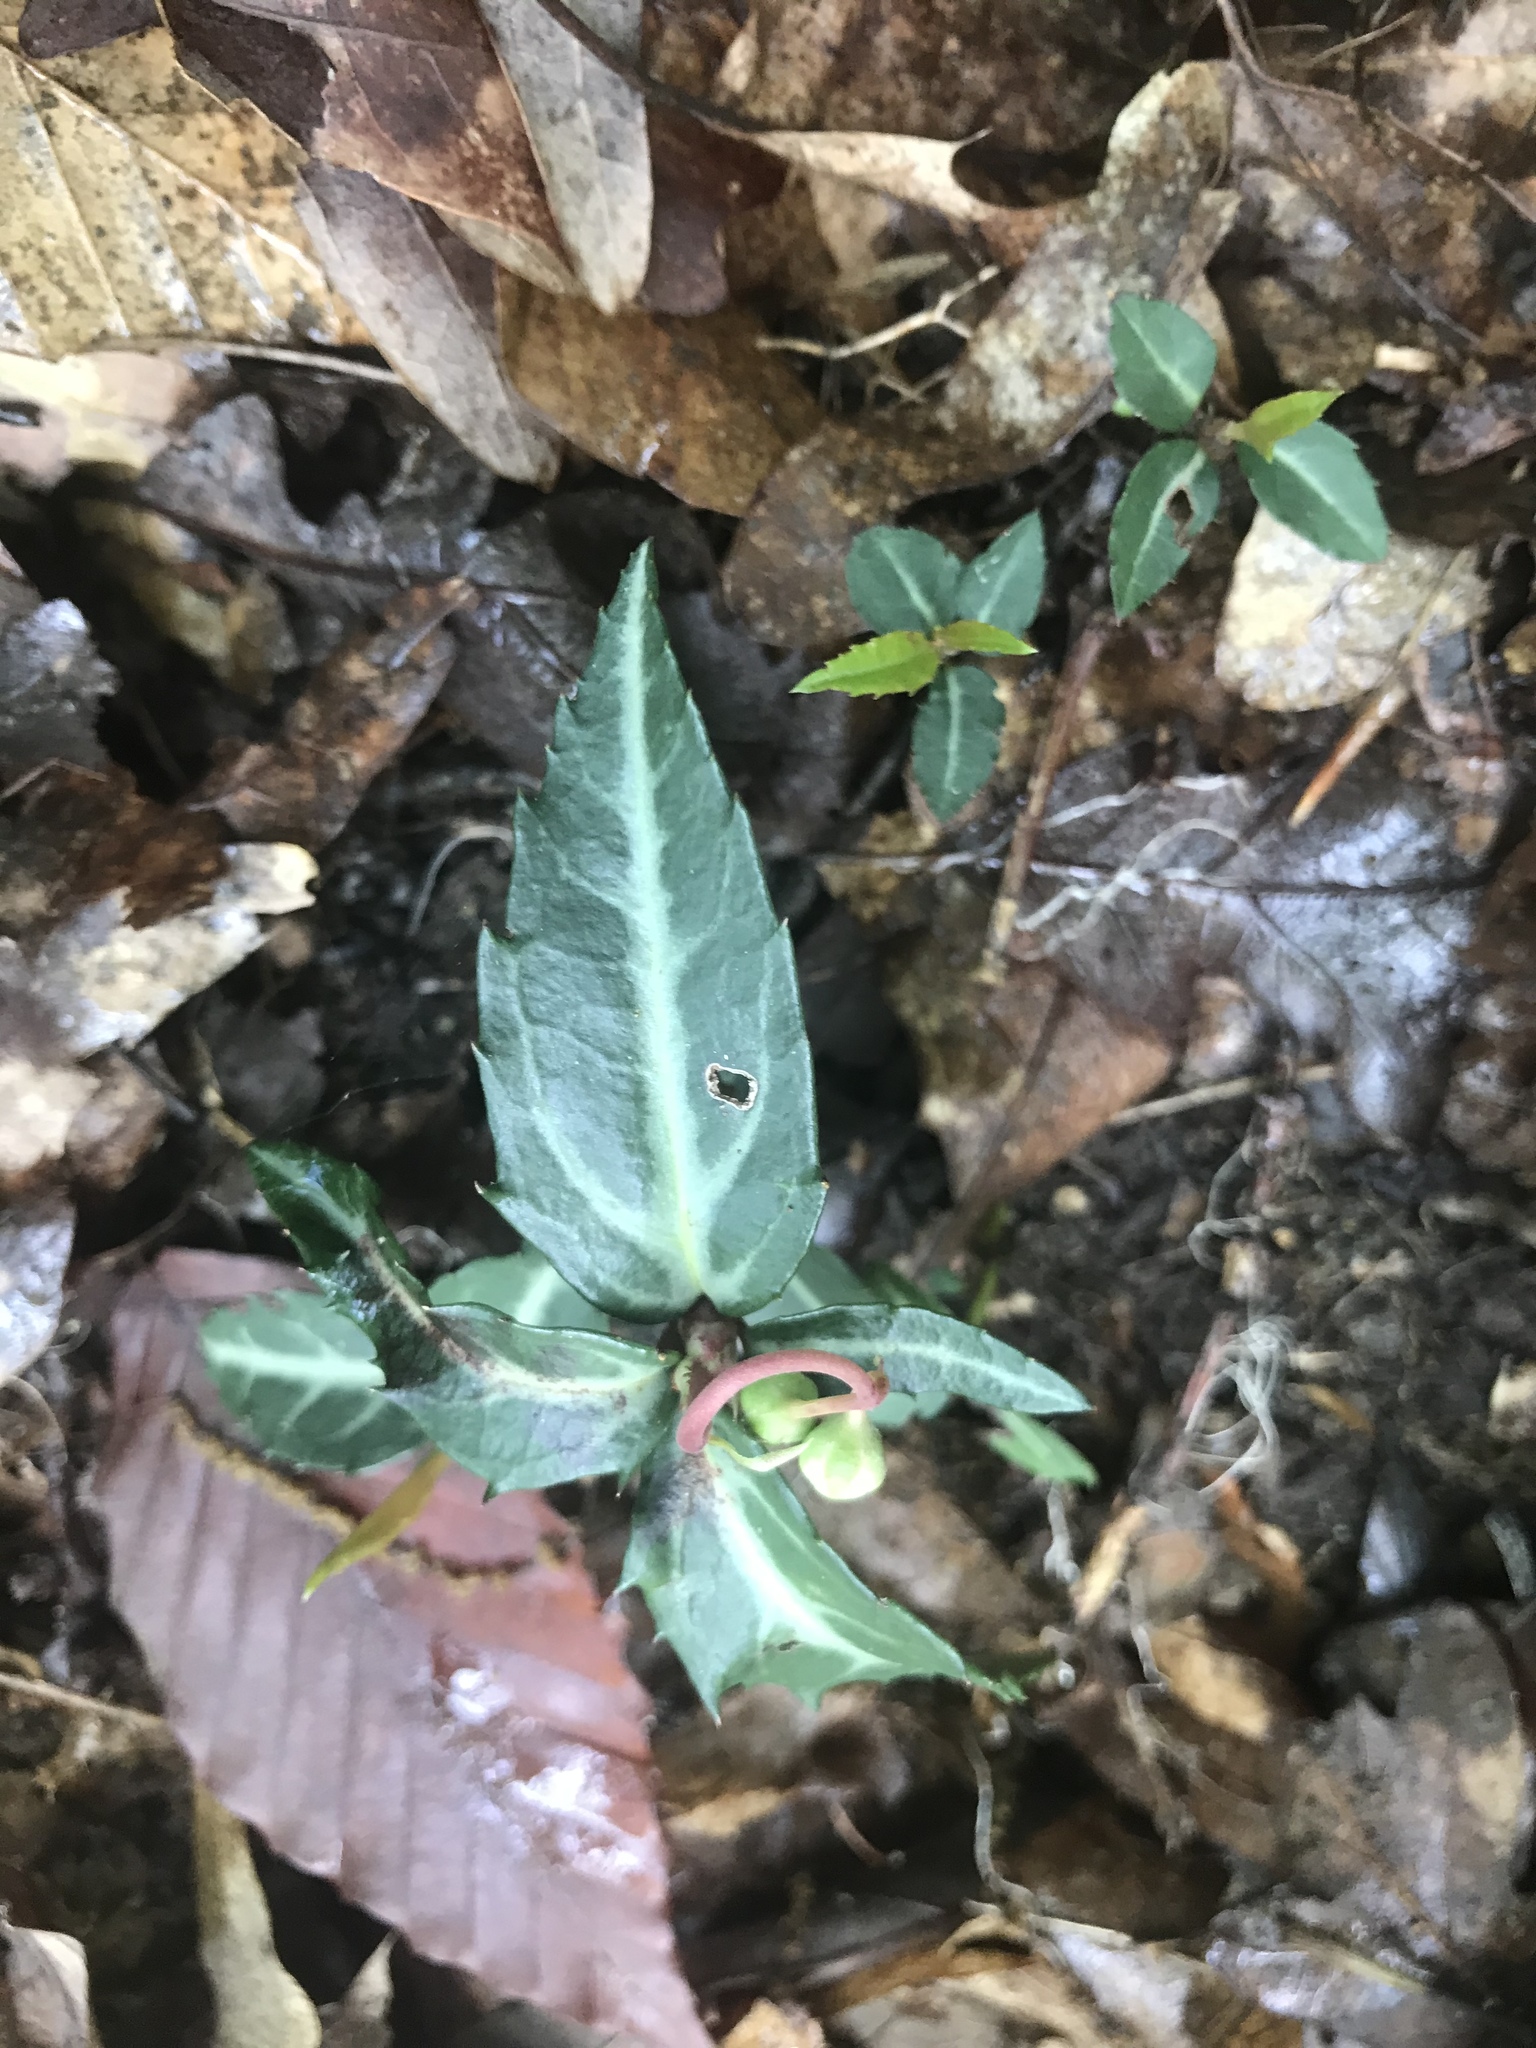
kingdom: Plantae
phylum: Tracheophyta
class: Magnoliopsida
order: Ericales
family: Ericaceae
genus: Chimaphila
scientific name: Chimaphila maculata
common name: Spotted pipsissewa
